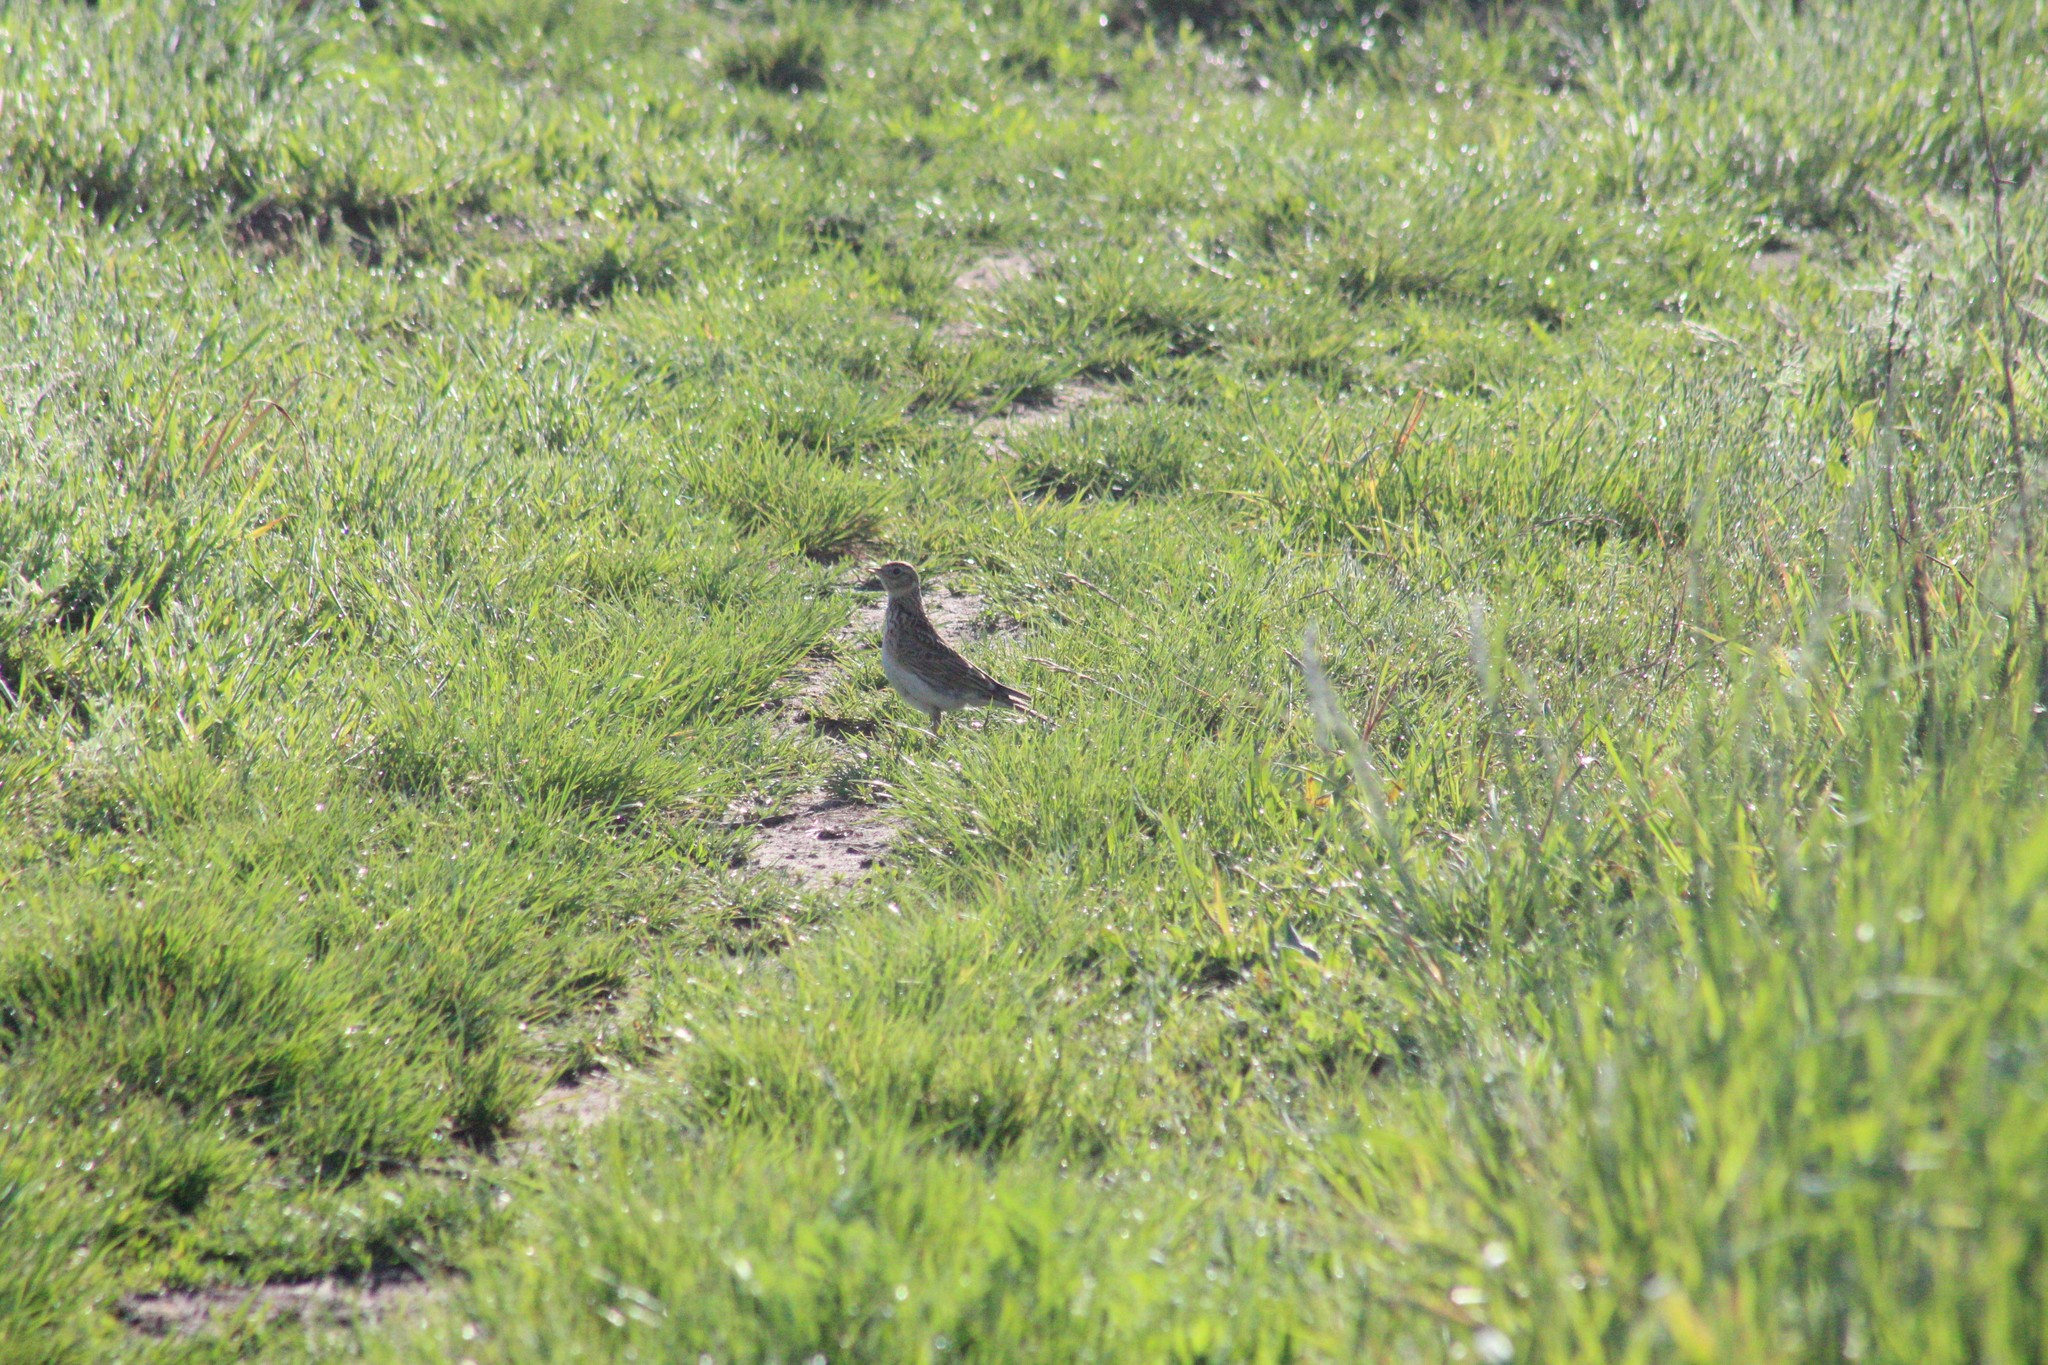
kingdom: Animalia
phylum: Chordata
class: Aves
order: Passeriformes
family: Alaudidae
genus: Alauda
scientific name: Alauda arvensis
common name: Eurasian skylark
